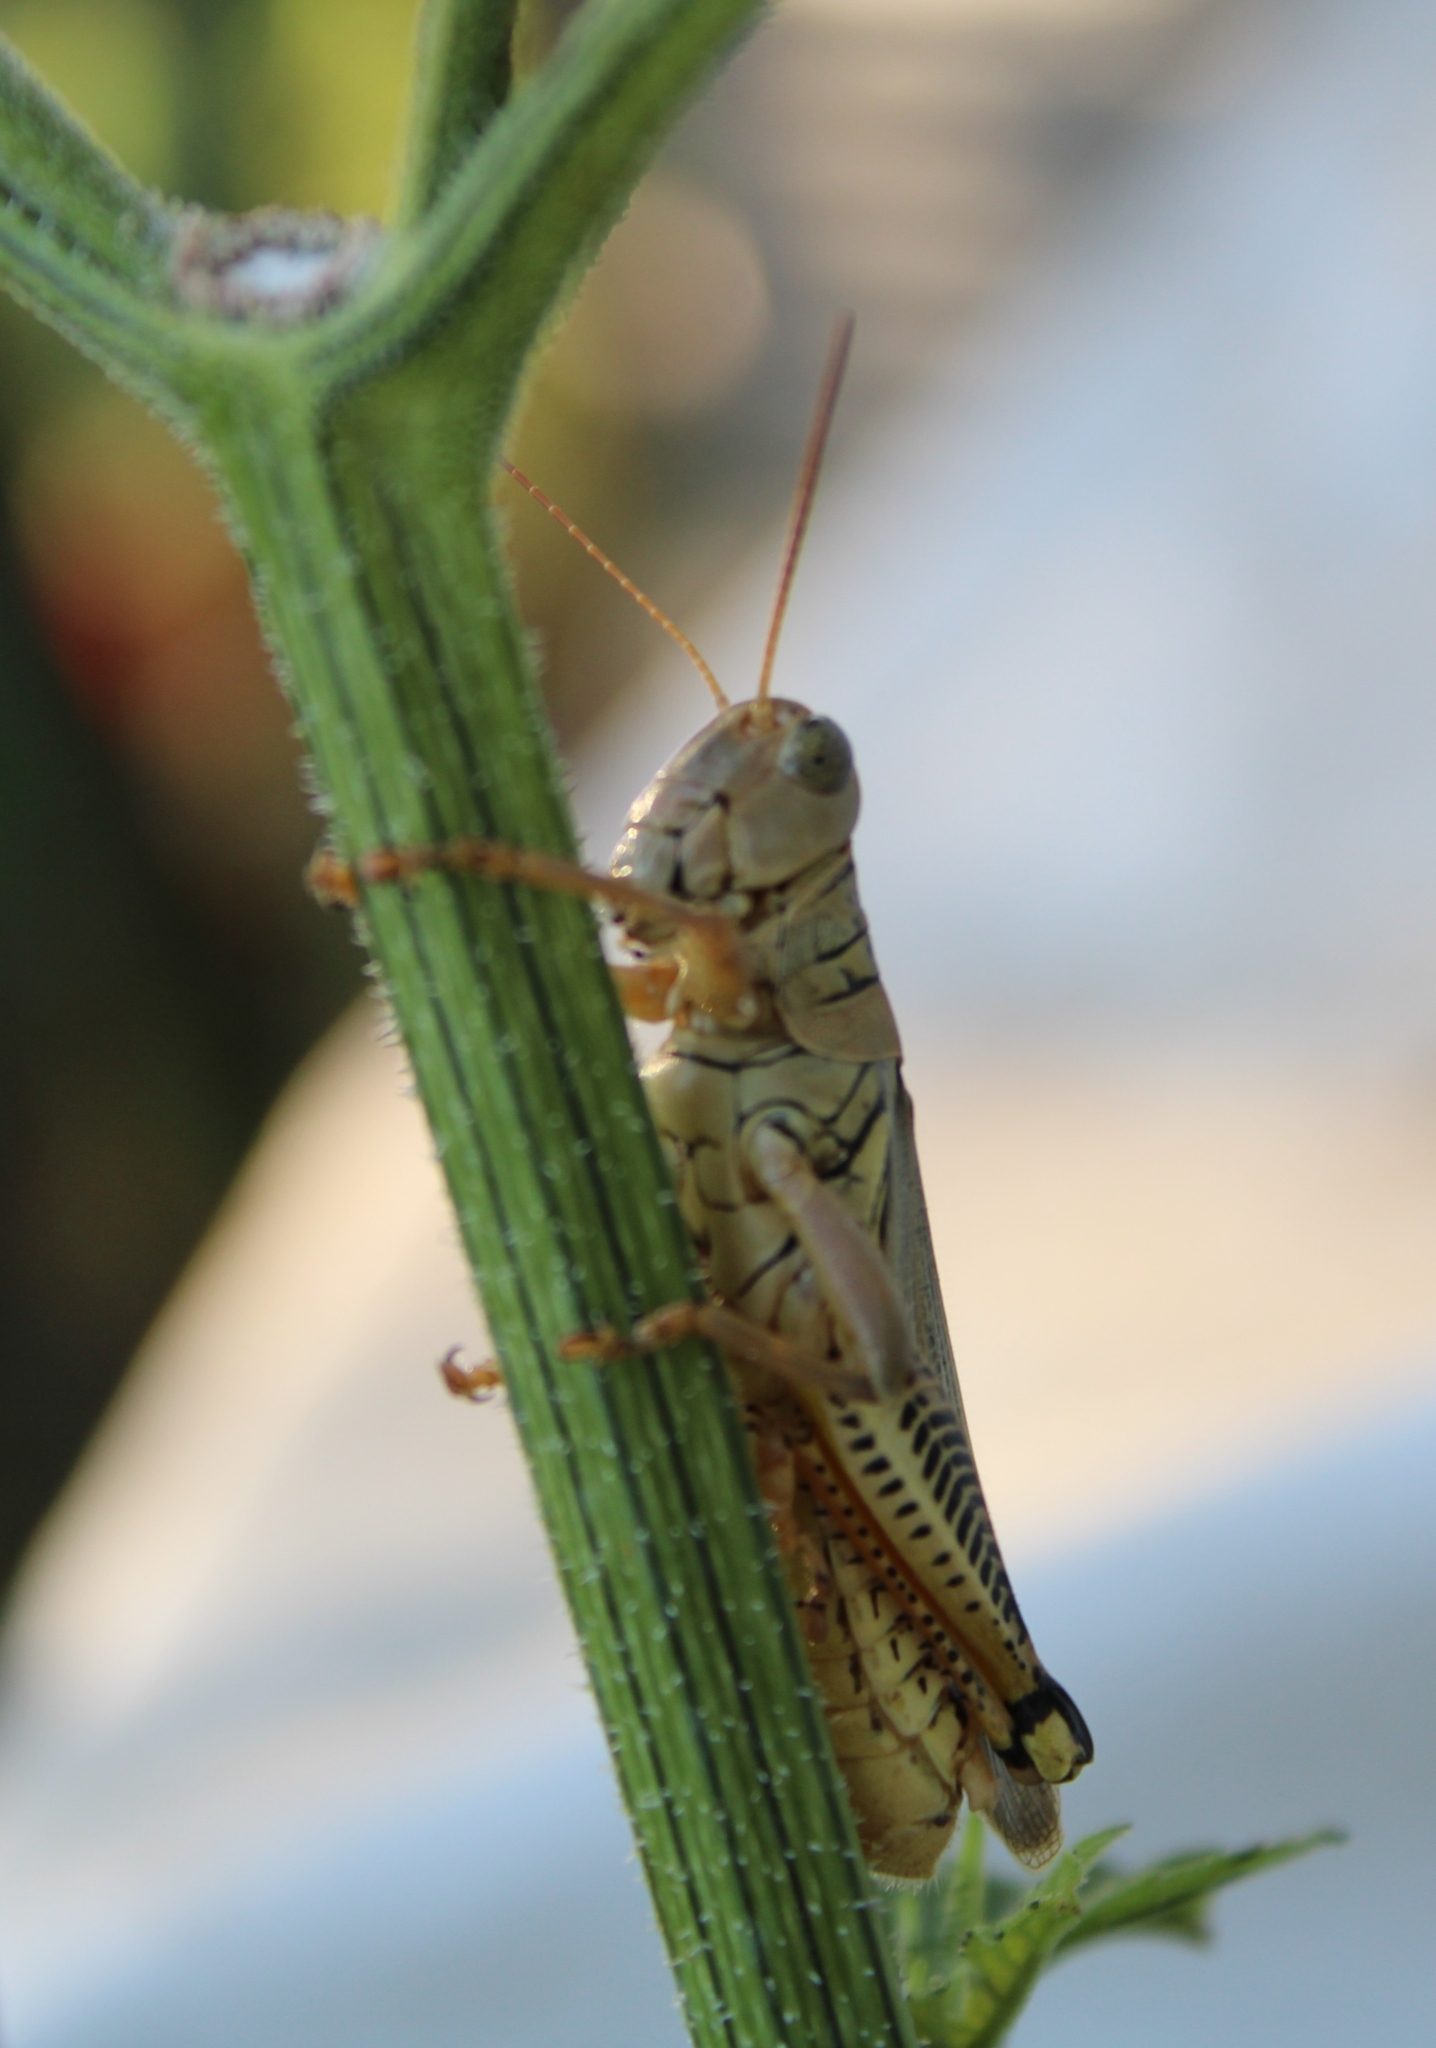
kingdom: Animalia
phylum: Arthropoda
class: Insecta
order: Orthoptera
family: Acrididae
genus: Melanoplus
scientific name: Melanoplus differentialis
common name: Differential grasshopper
